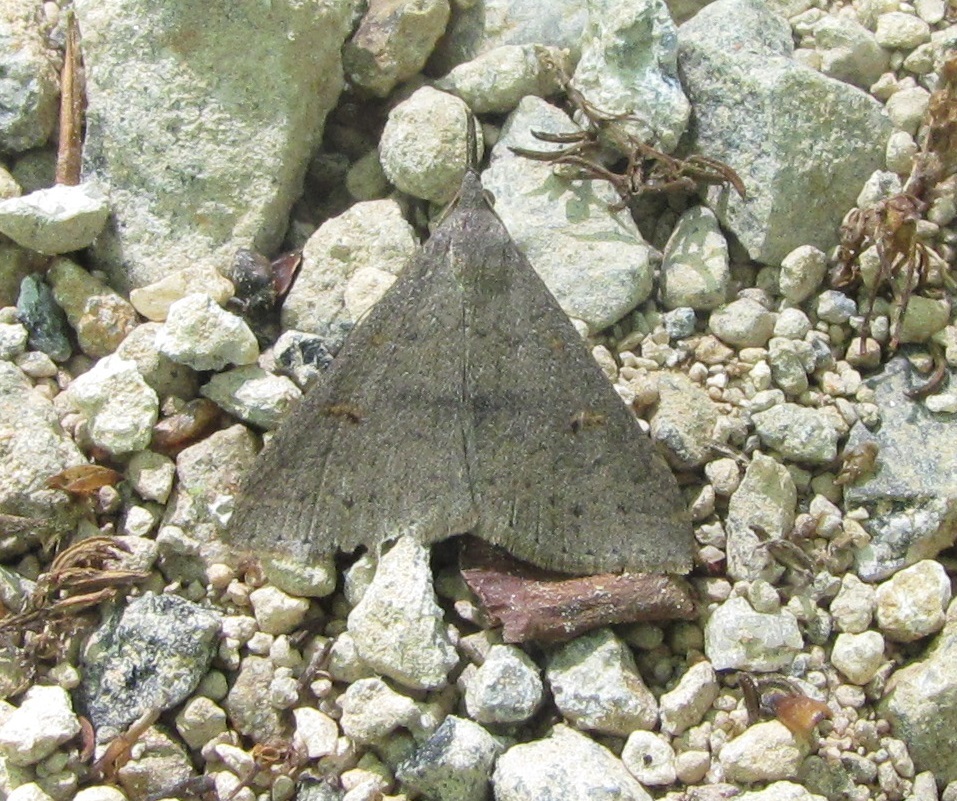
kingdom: Animalia
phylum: Arthropoda
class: Insecta
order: Lepidoptera
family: Erebidae
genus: Renia
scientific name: Renia adspergillus
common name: Speckled renia moth
